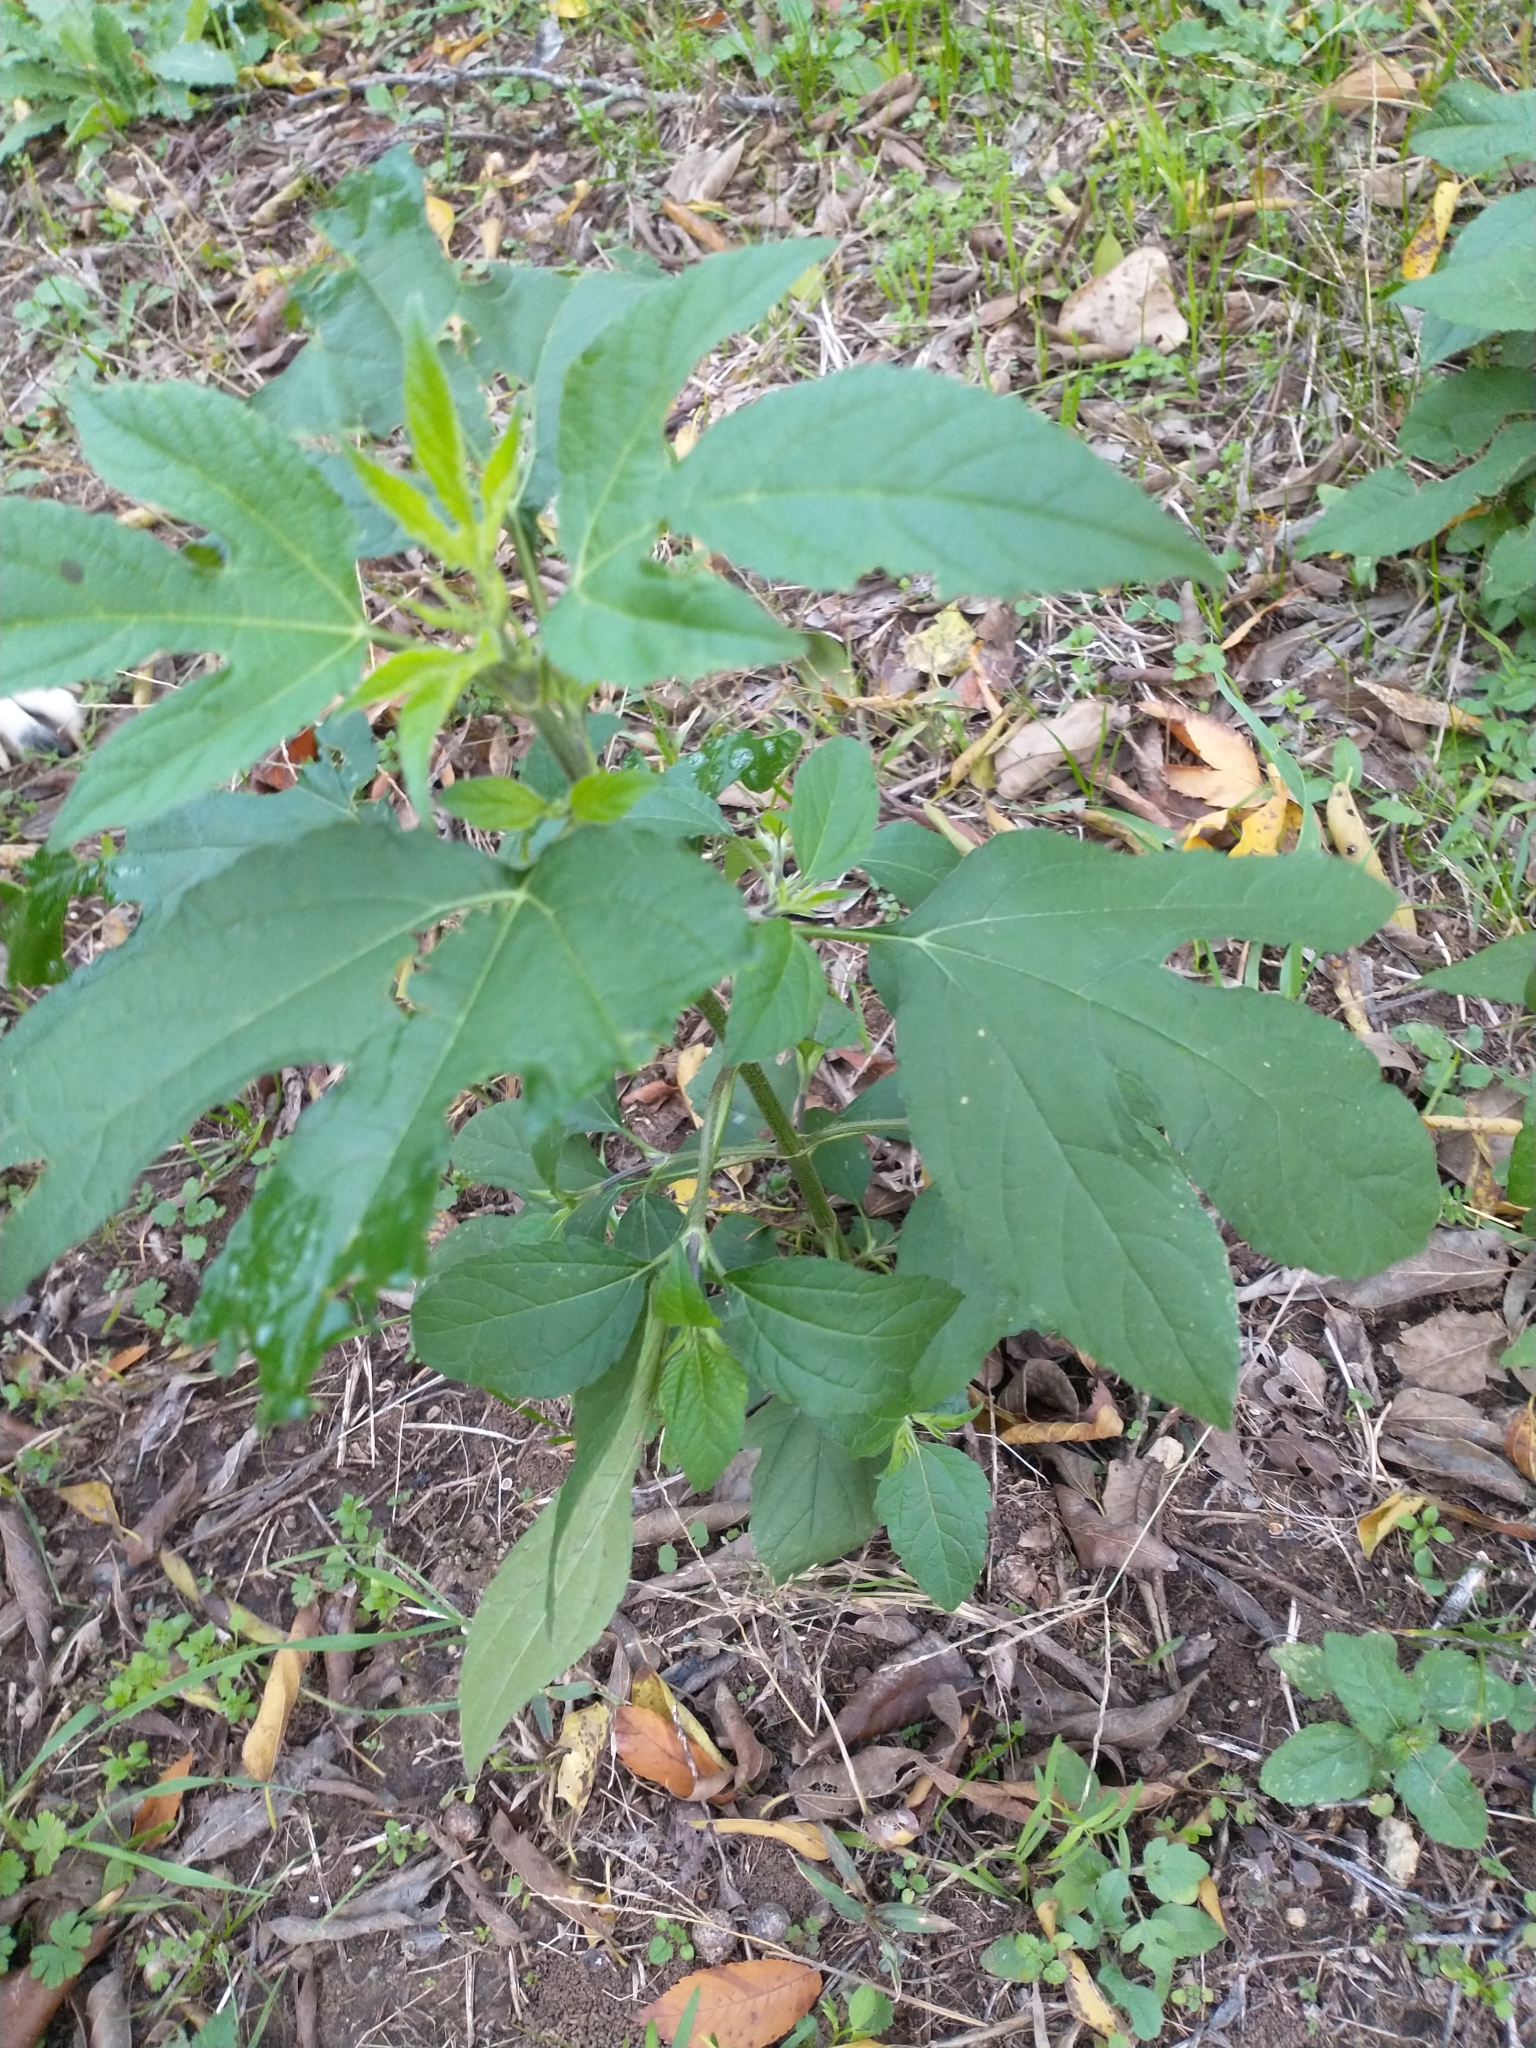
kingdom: Plantae
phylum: Tracheophyta
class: Magnoliopsida
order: Asterales
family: Asteraceae
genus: Ambrosia
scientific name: Ambrosia trifida
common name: Giant ragweed
